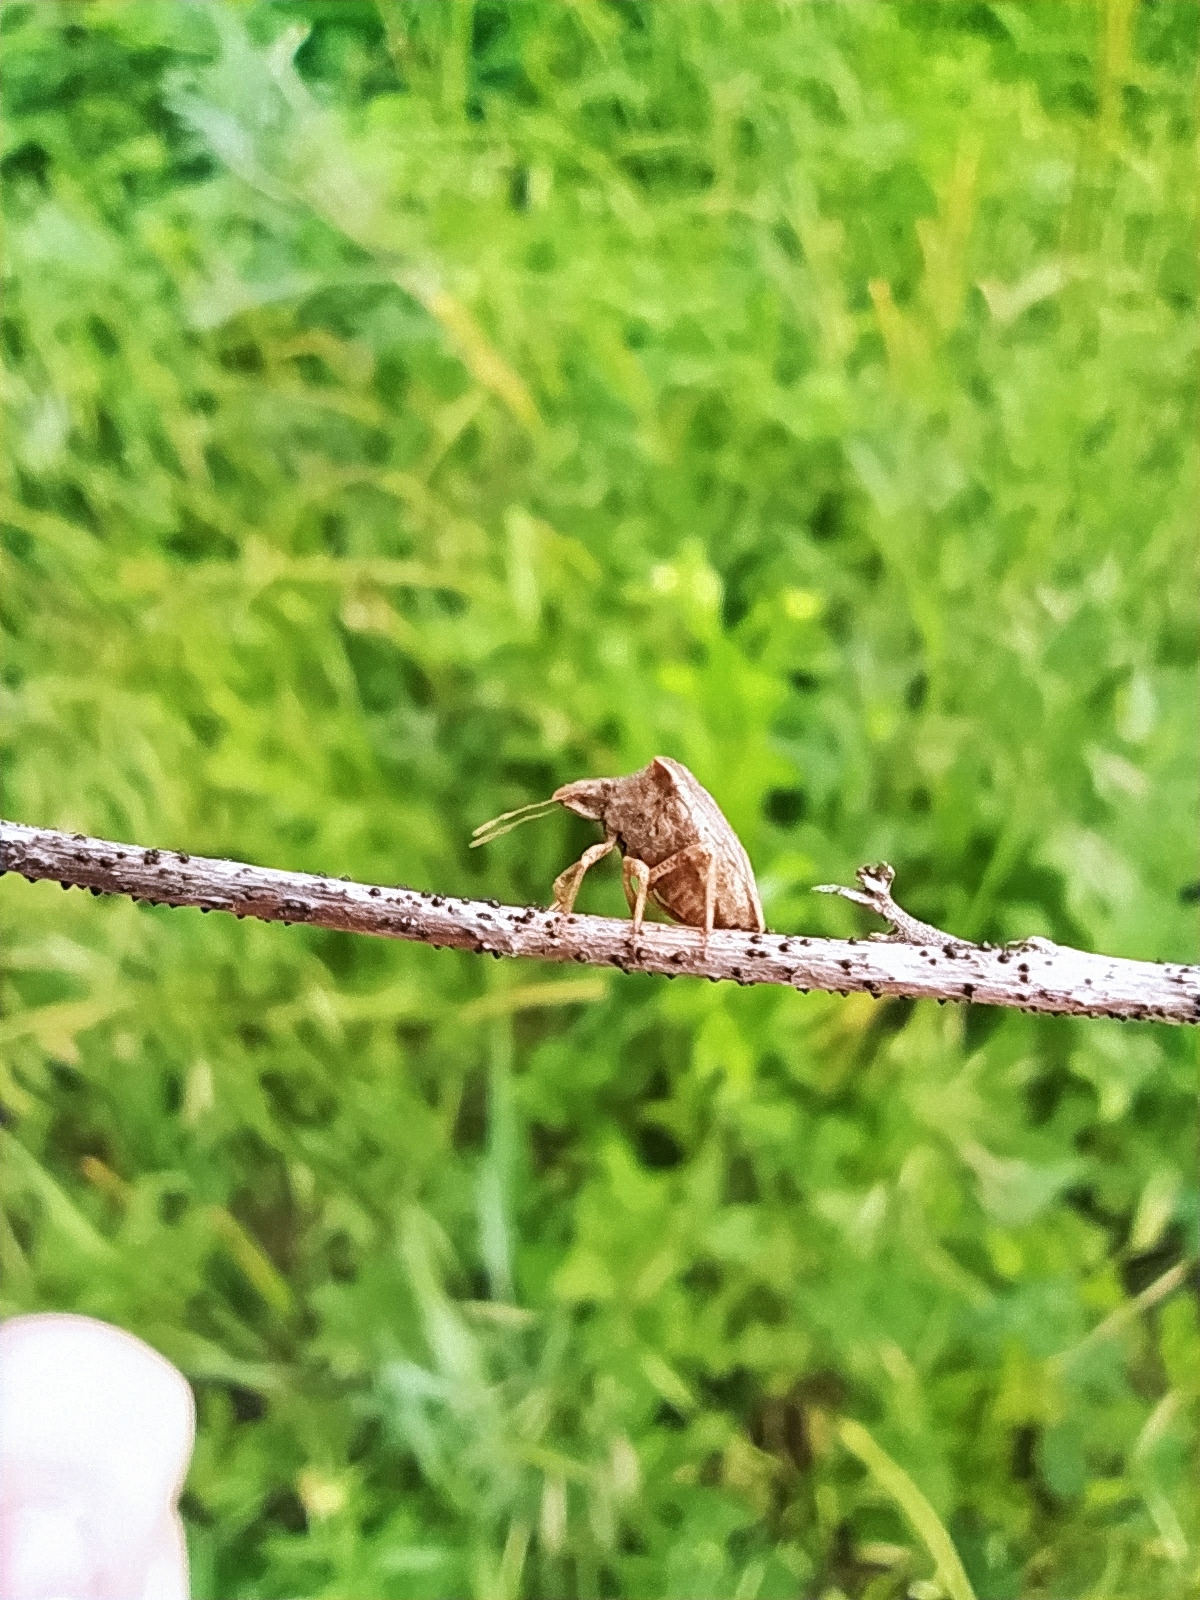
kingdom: Animalia
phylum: Arthropoda
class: Insecta
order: Hemiptera
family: Pentatomidae
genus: Ancyrosoma
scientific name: Ancyrosoma leucogrammes
